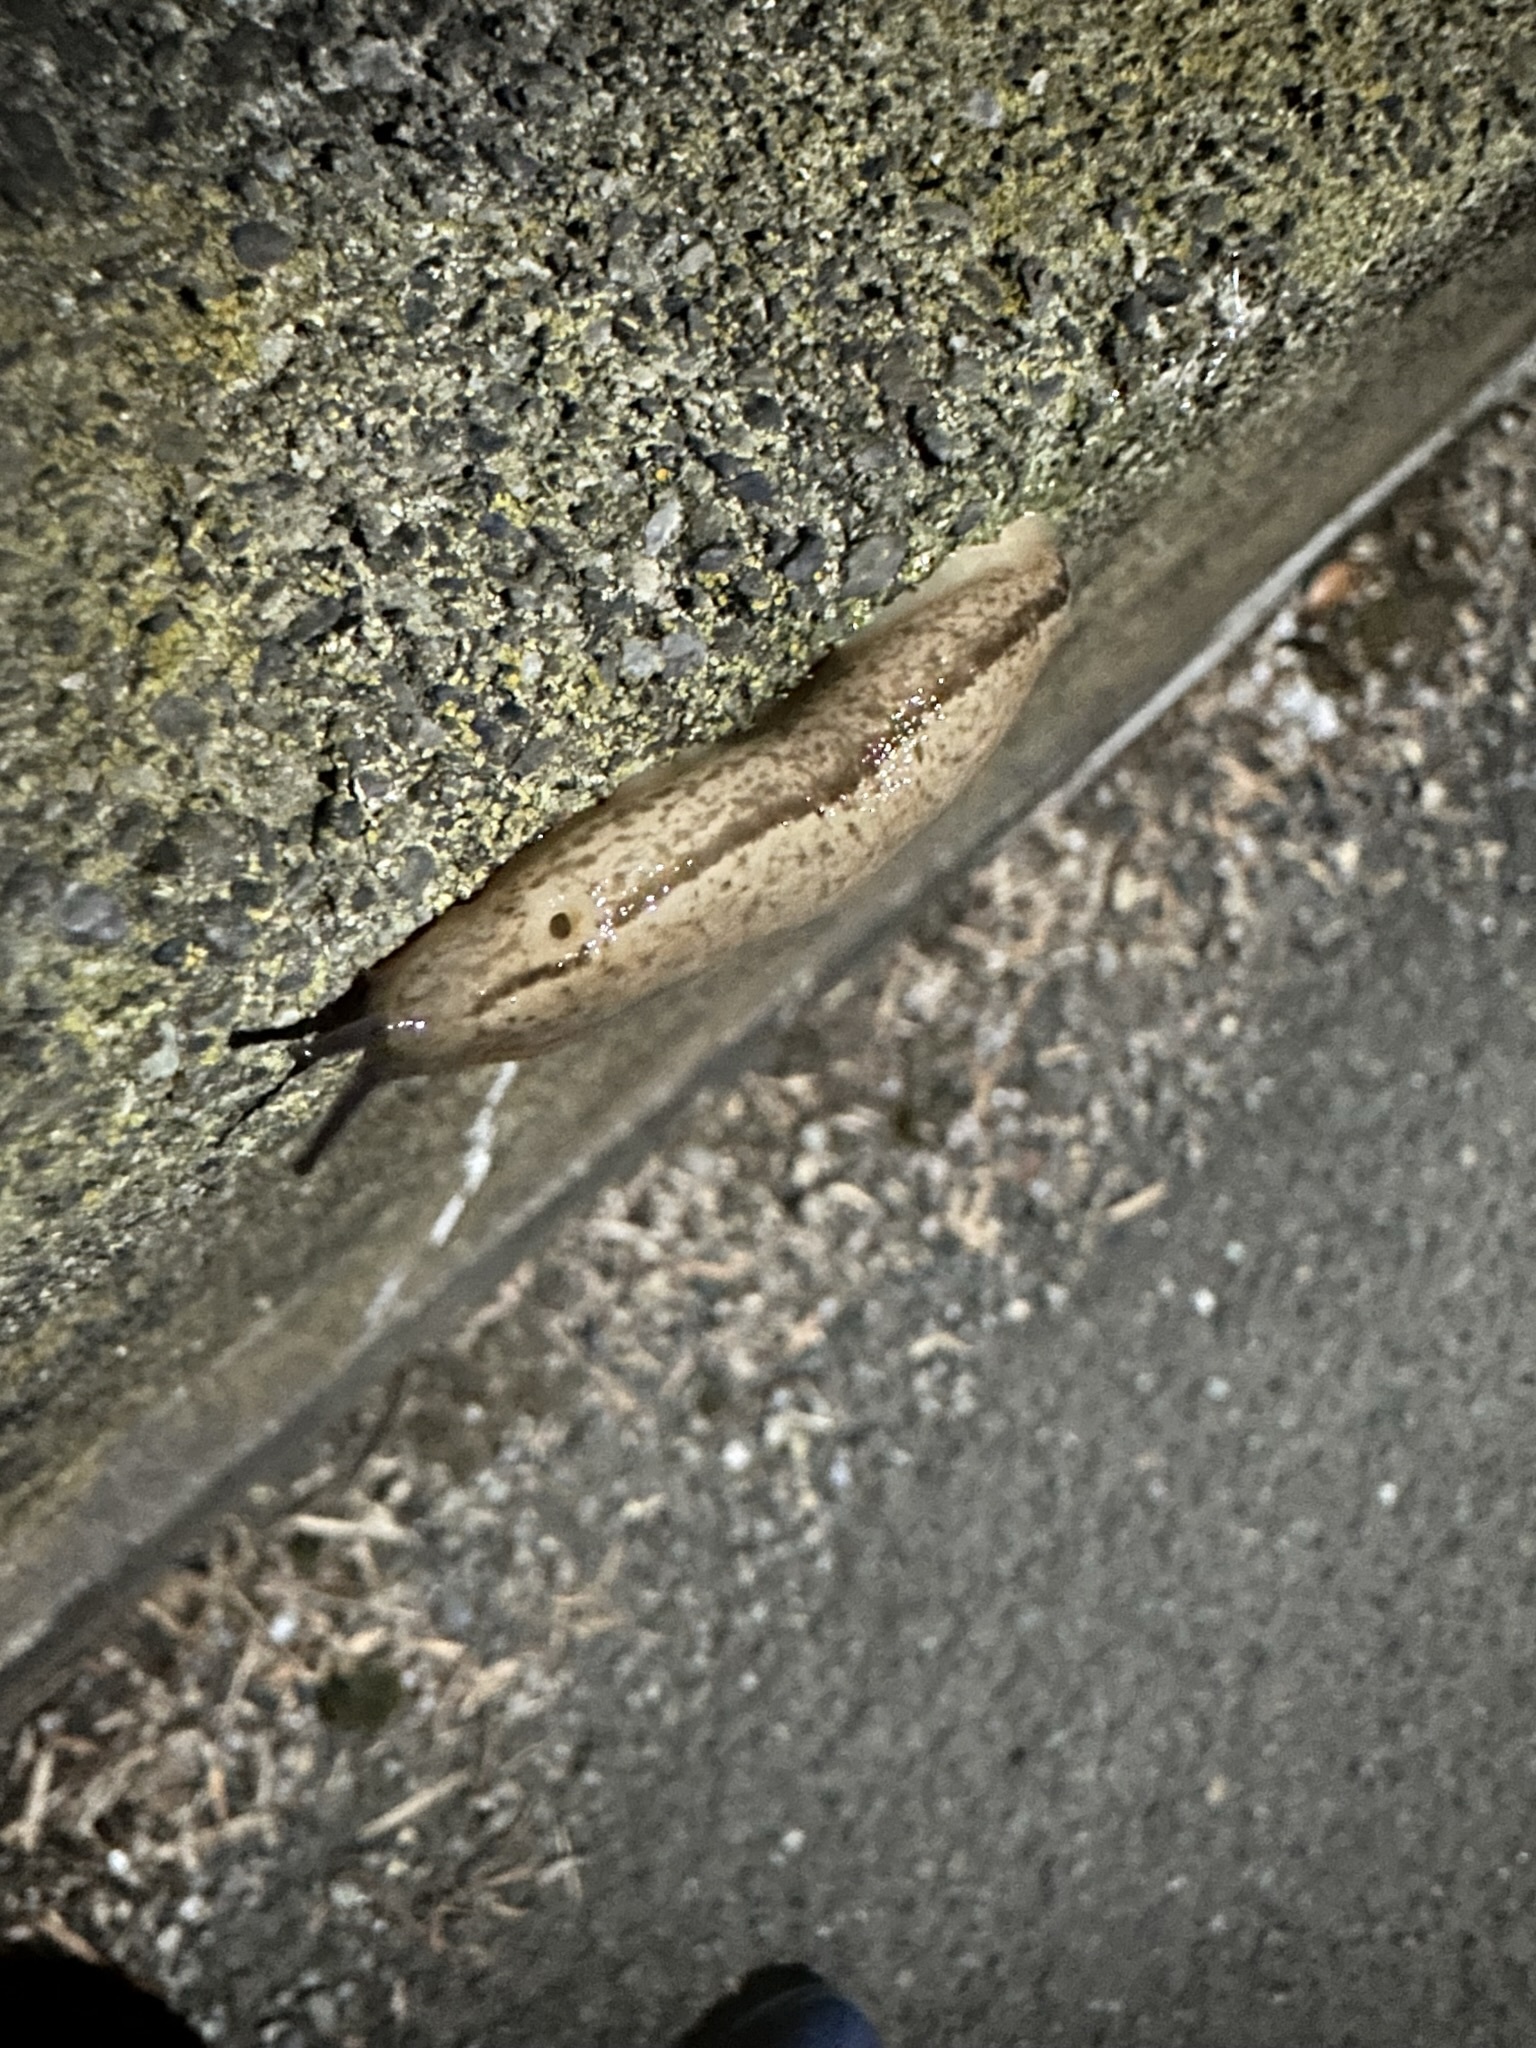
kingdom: Animalia
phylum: Mollusca
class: Gastropoda
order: Stylommatophora
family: Philomycidae
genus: Meghimatium
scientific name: Meghimatium bilineatum
